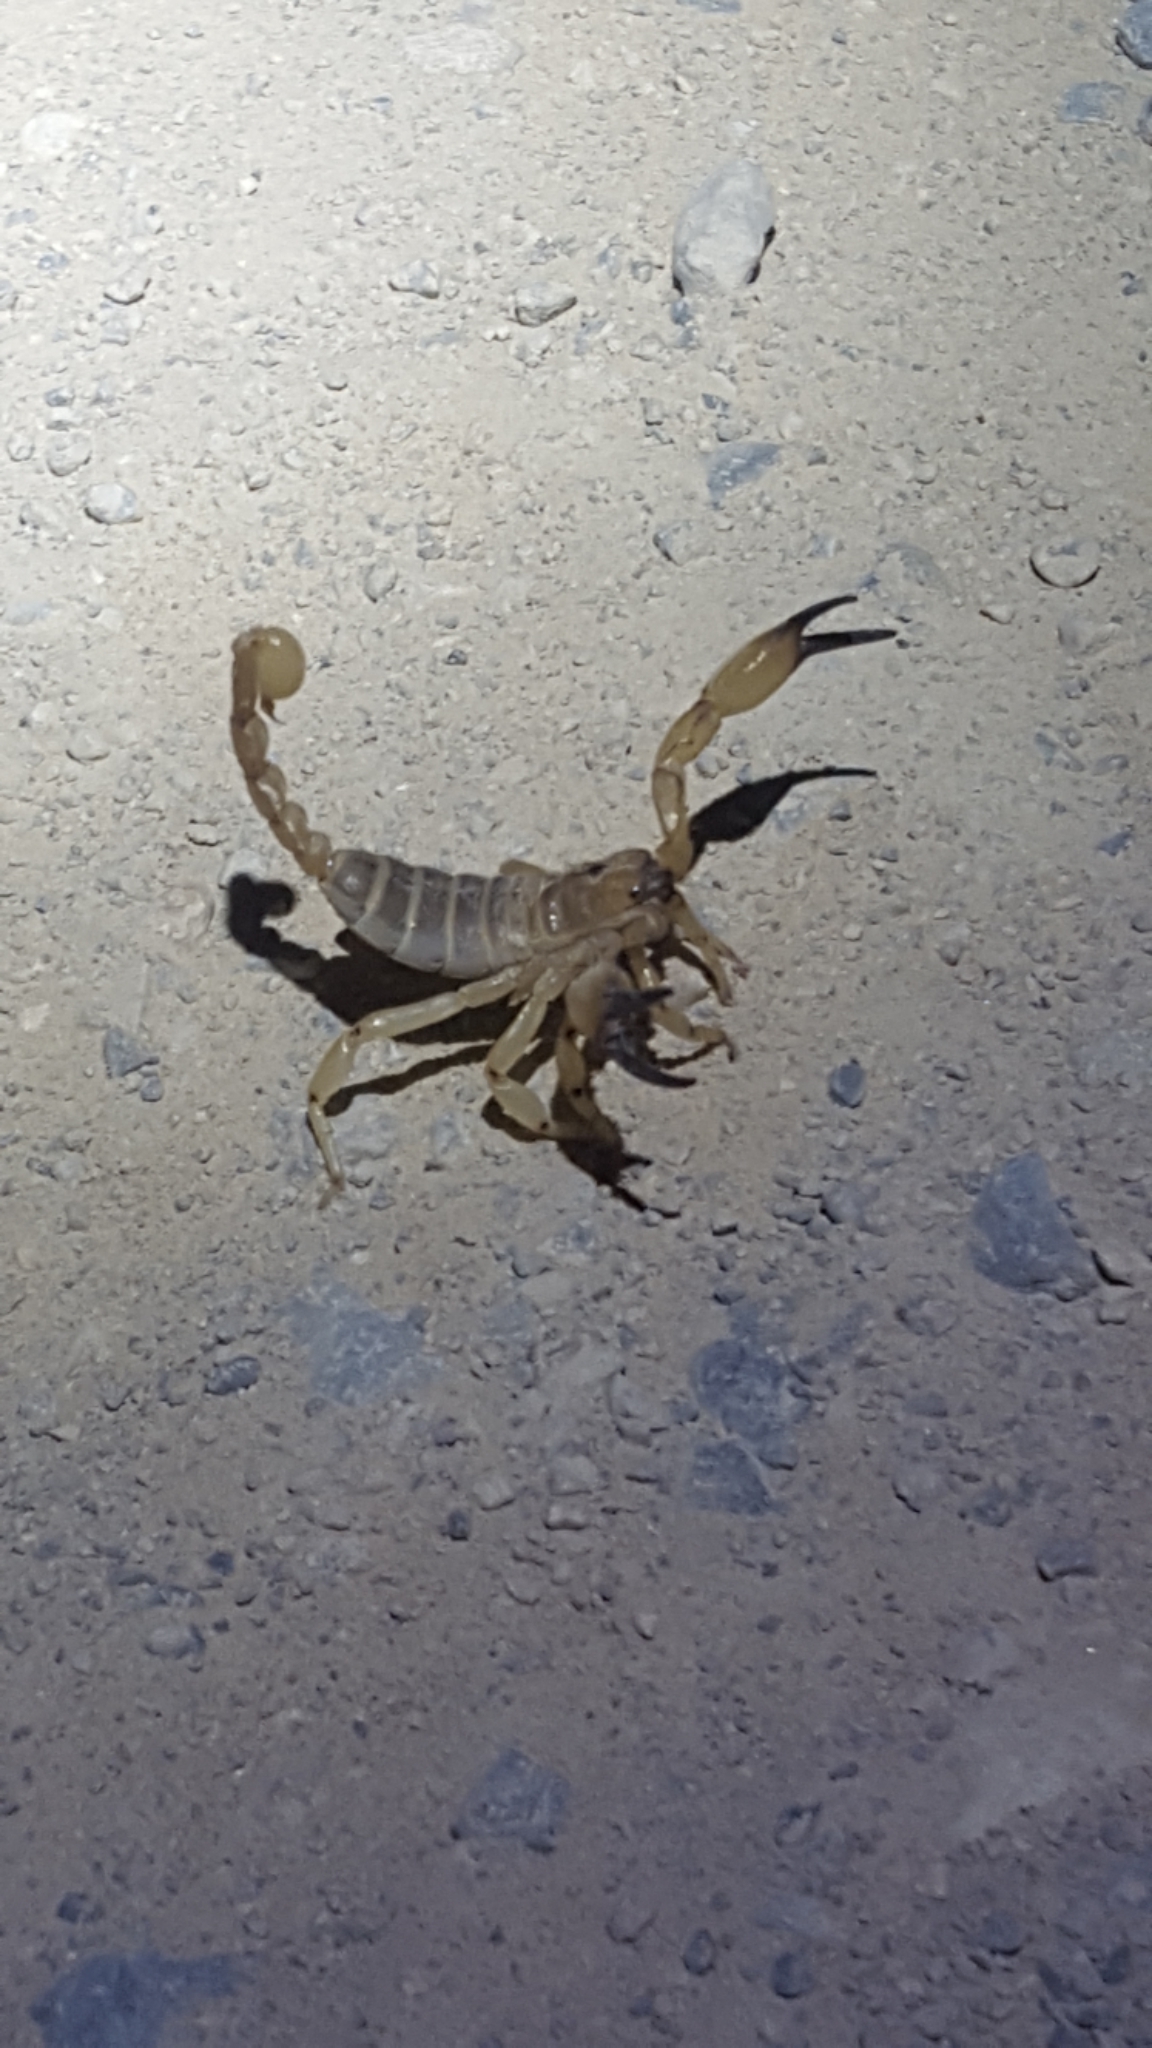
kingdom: Animalia
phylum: Arthropoda
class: Arachnida
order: Scorpiones
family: Chactidae
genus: Anuroctonus
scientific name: Anuroctonus phaiodactylus
